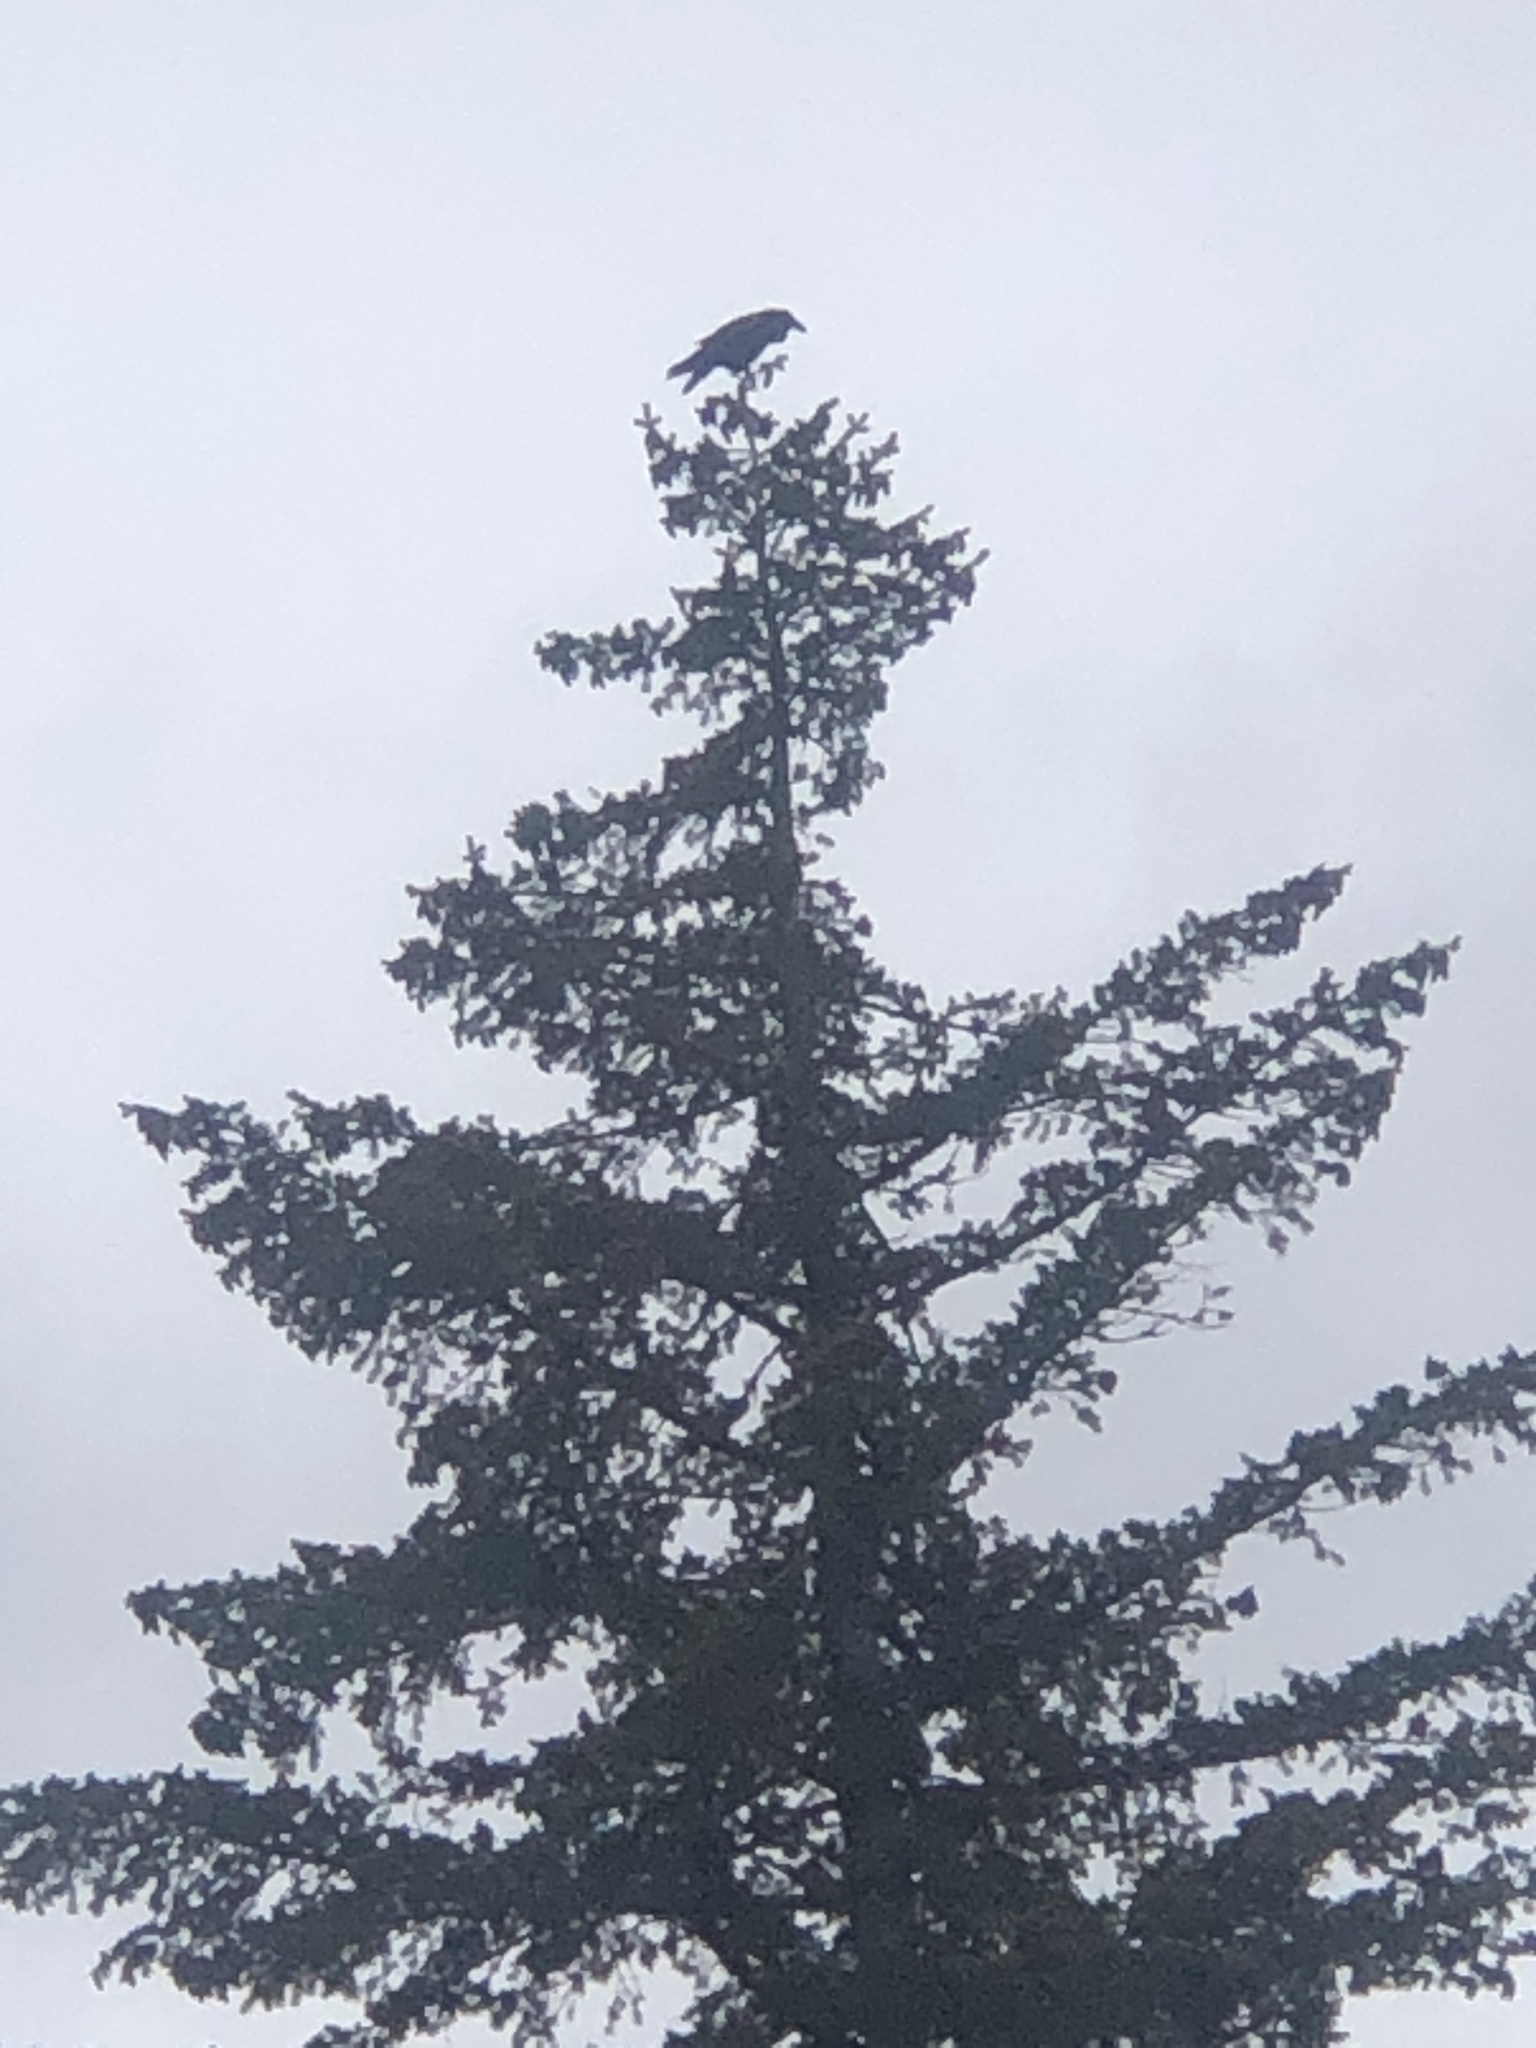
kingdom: Animalia
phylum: Chordata
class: Aves
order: Passeriformes
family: Corvidae
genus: Corvus
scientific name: Corvus corax
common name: Common raven
